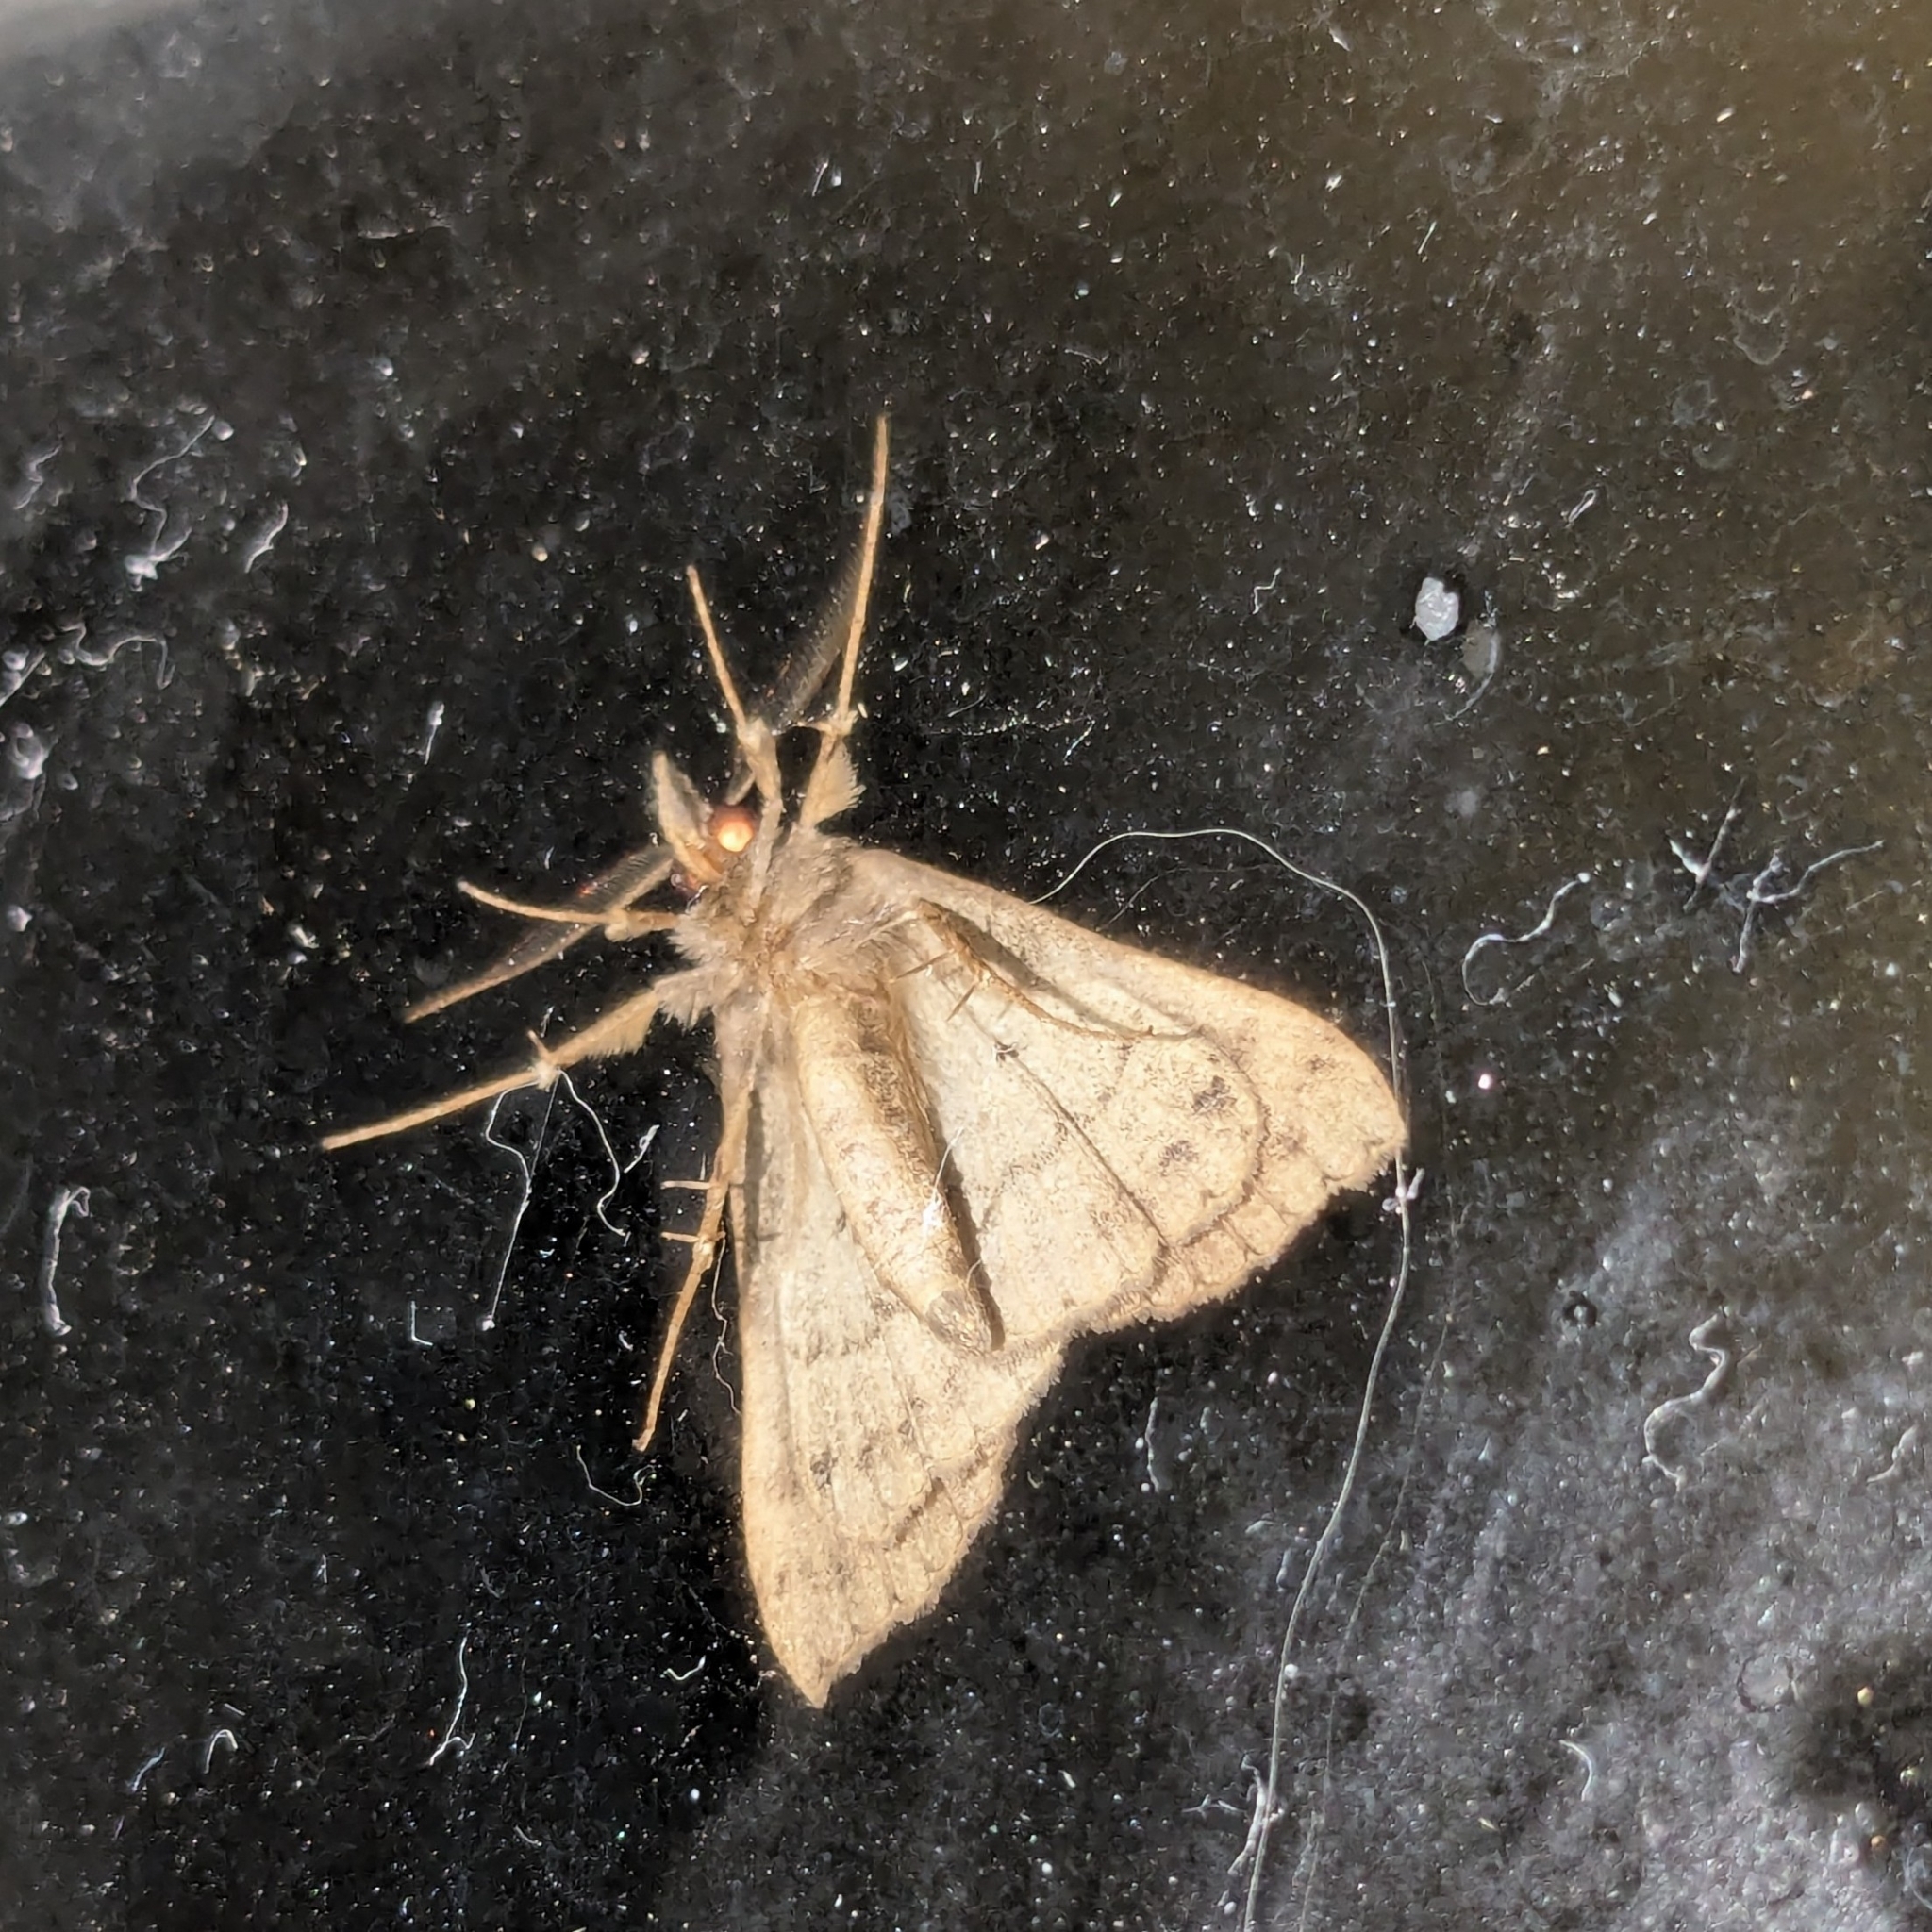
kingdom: Animalia
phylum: Arthropoda
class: Insecta
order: Lepidoptera
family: Erebidae
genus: Rhapsa
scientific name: Rhapsa scotosialis
